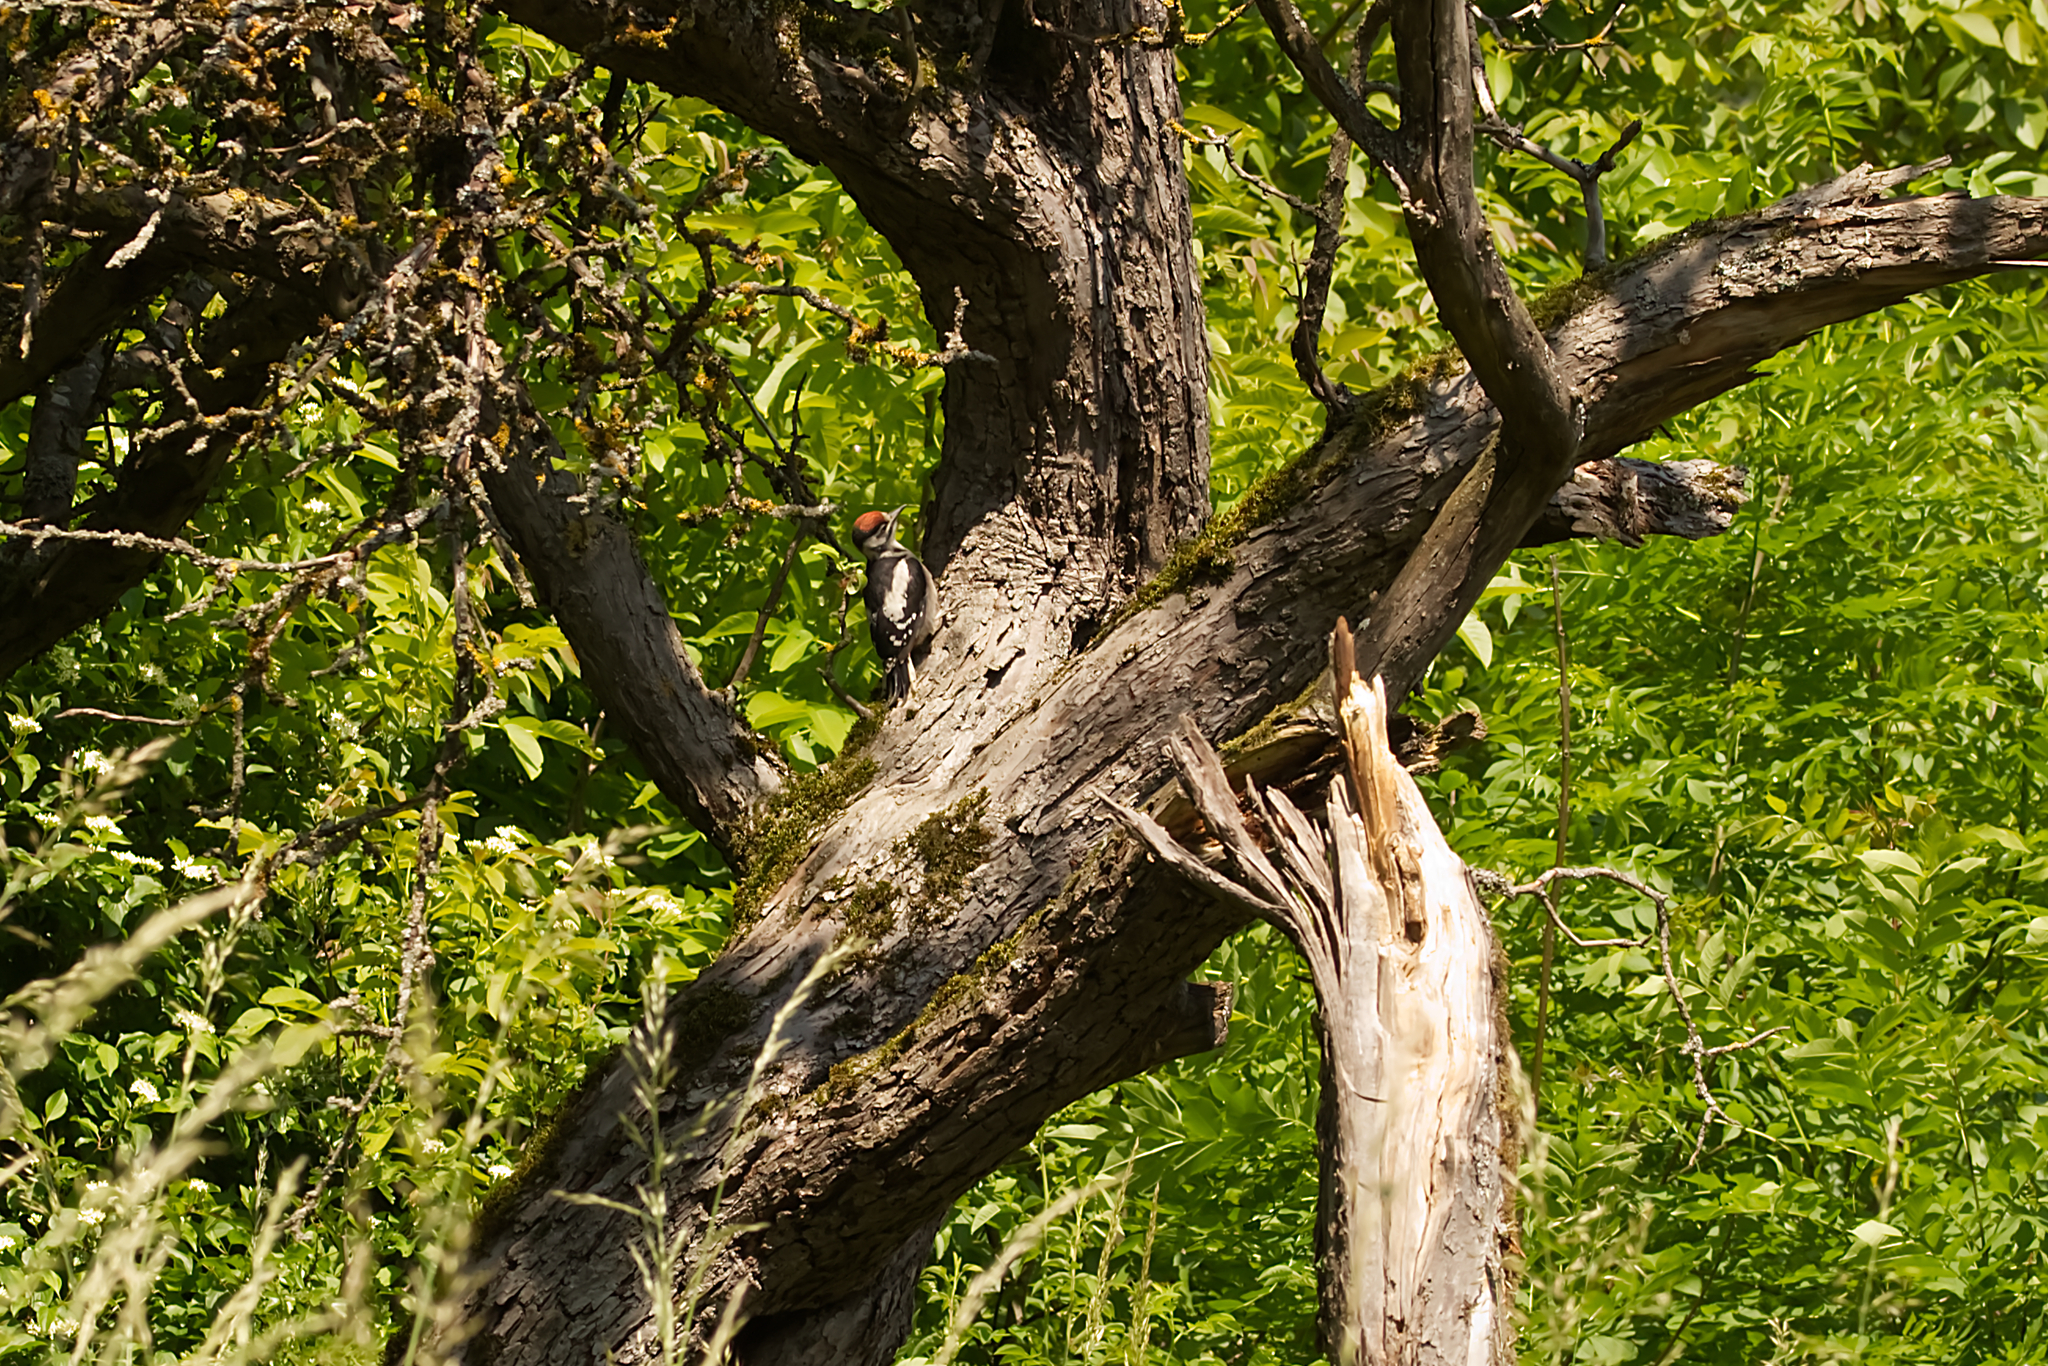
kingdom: Animalia
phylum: Chordata
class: Aves
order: Piciformes
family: Picidae
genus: Dendrocopos
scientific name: Dendrocopos major
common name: Great spotted woodpecker
